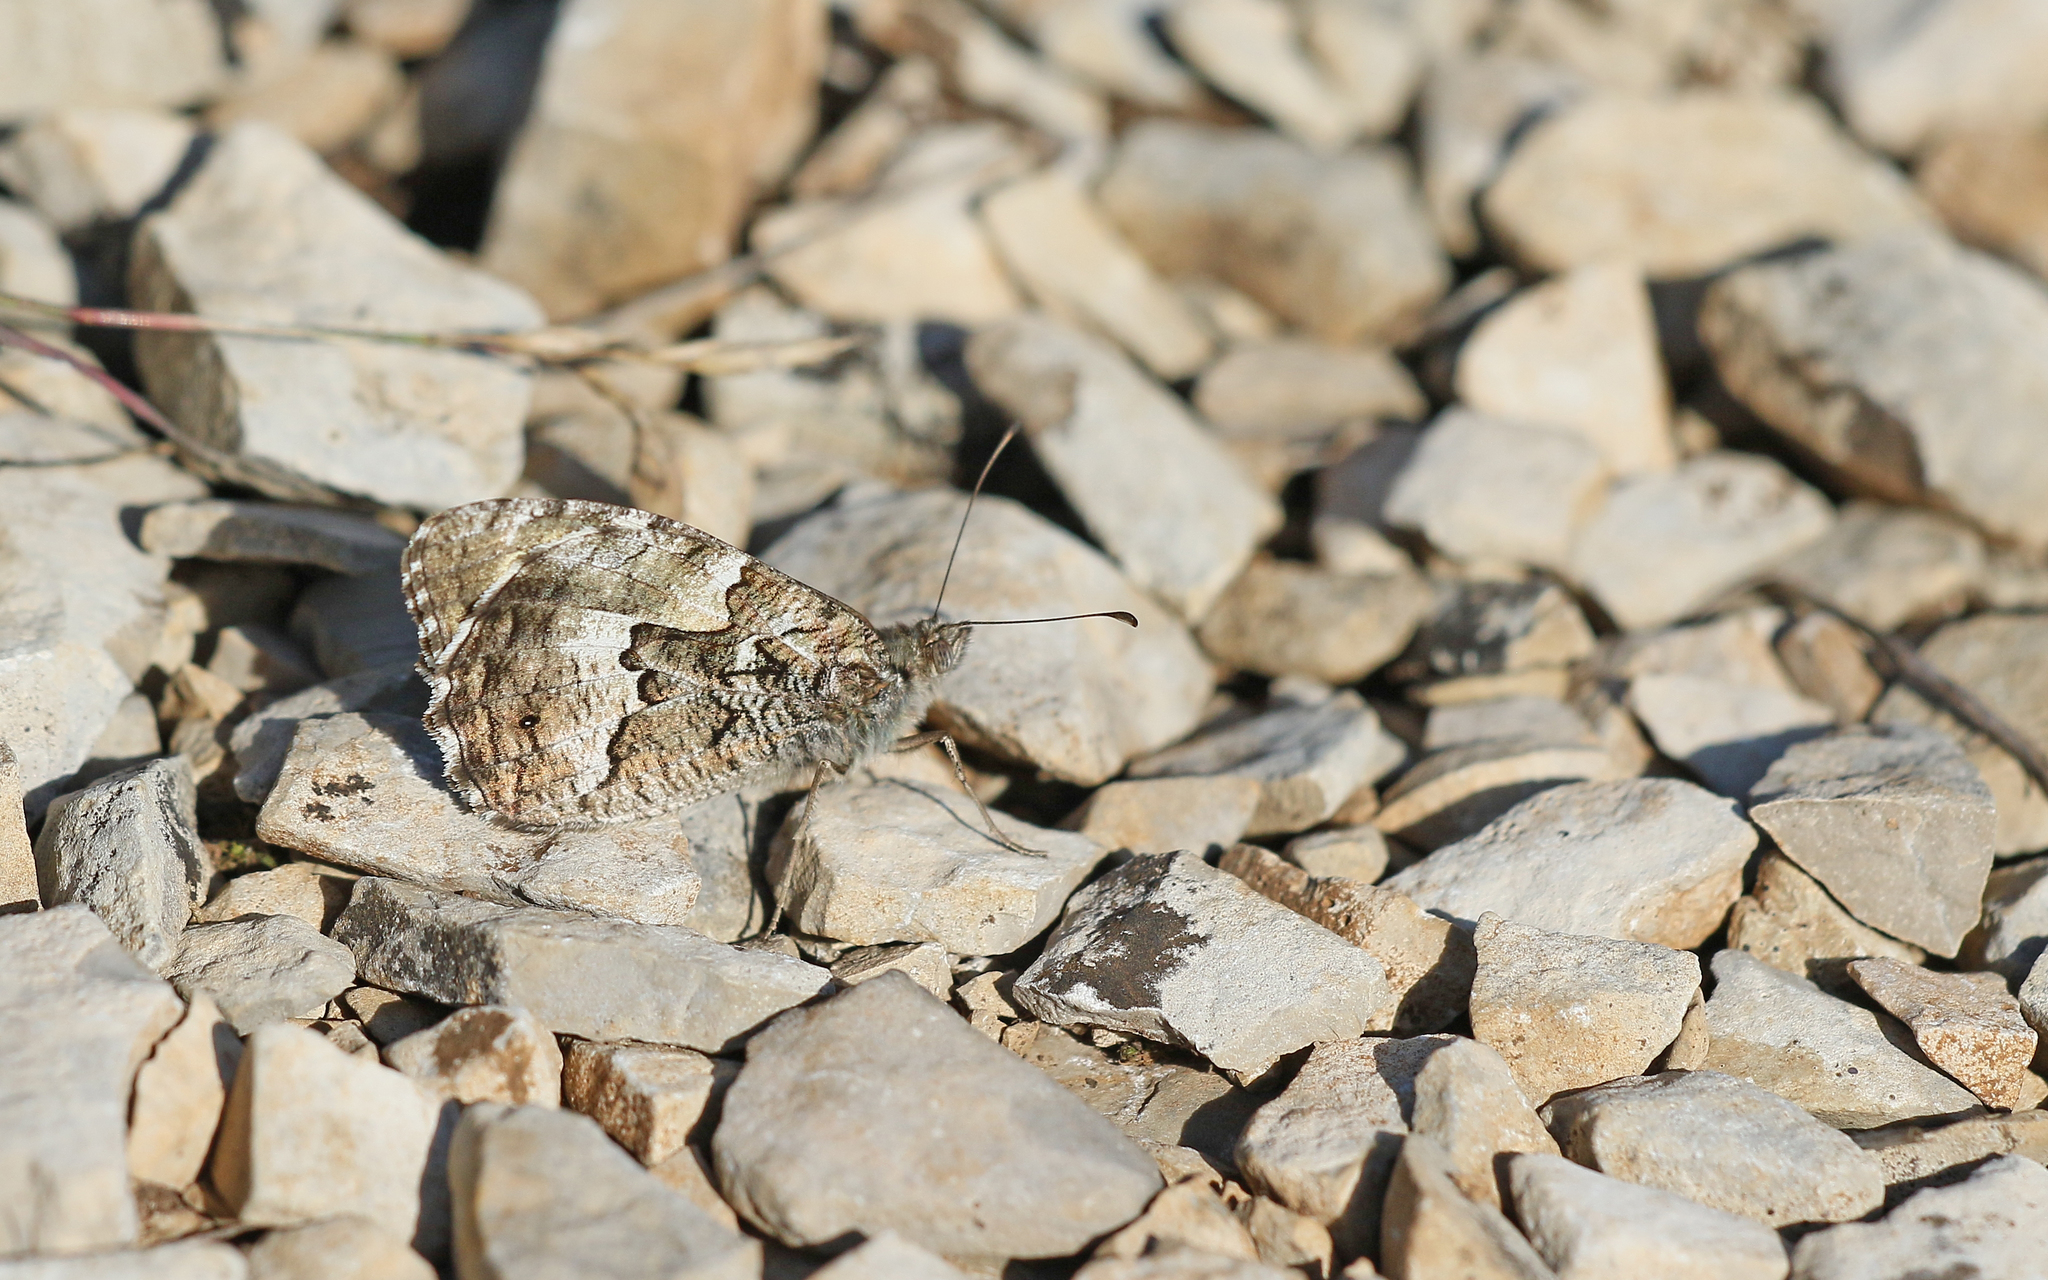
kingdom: Animalia
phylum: Arthropoda
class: Insecta
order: Lepidoptera
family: Nymphalidae
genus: Hipparchia
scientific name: Hipparchia semele
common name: Grayling
